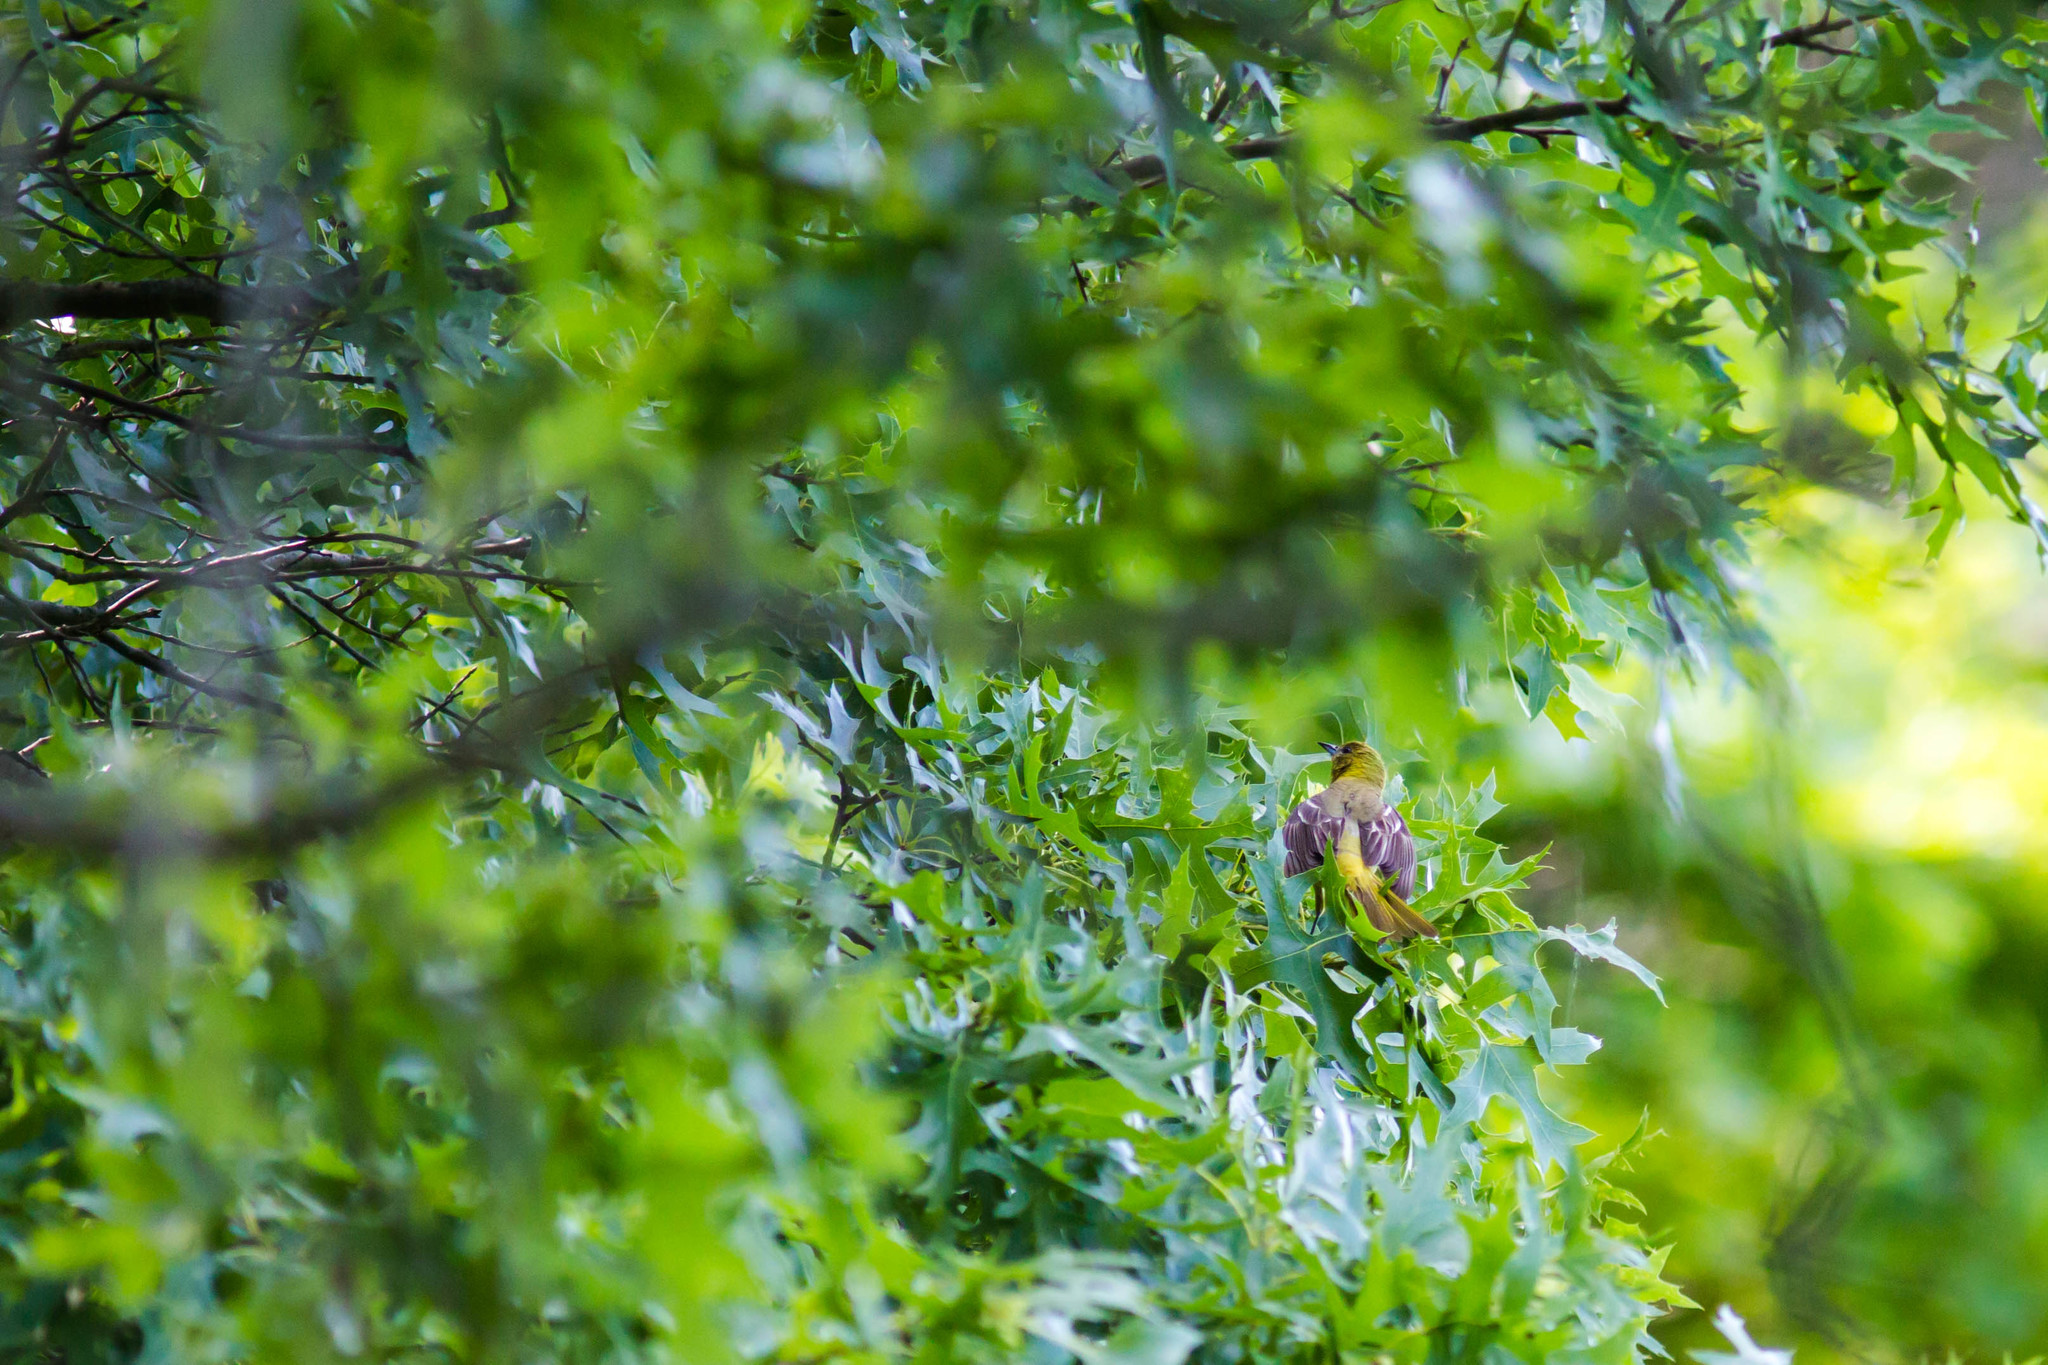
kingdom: Animalia
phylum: Chordata
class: Aves
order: Passeriformes
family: Icteridae
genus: Icterus
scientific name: Icterus spurius
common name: Orchard oriole
